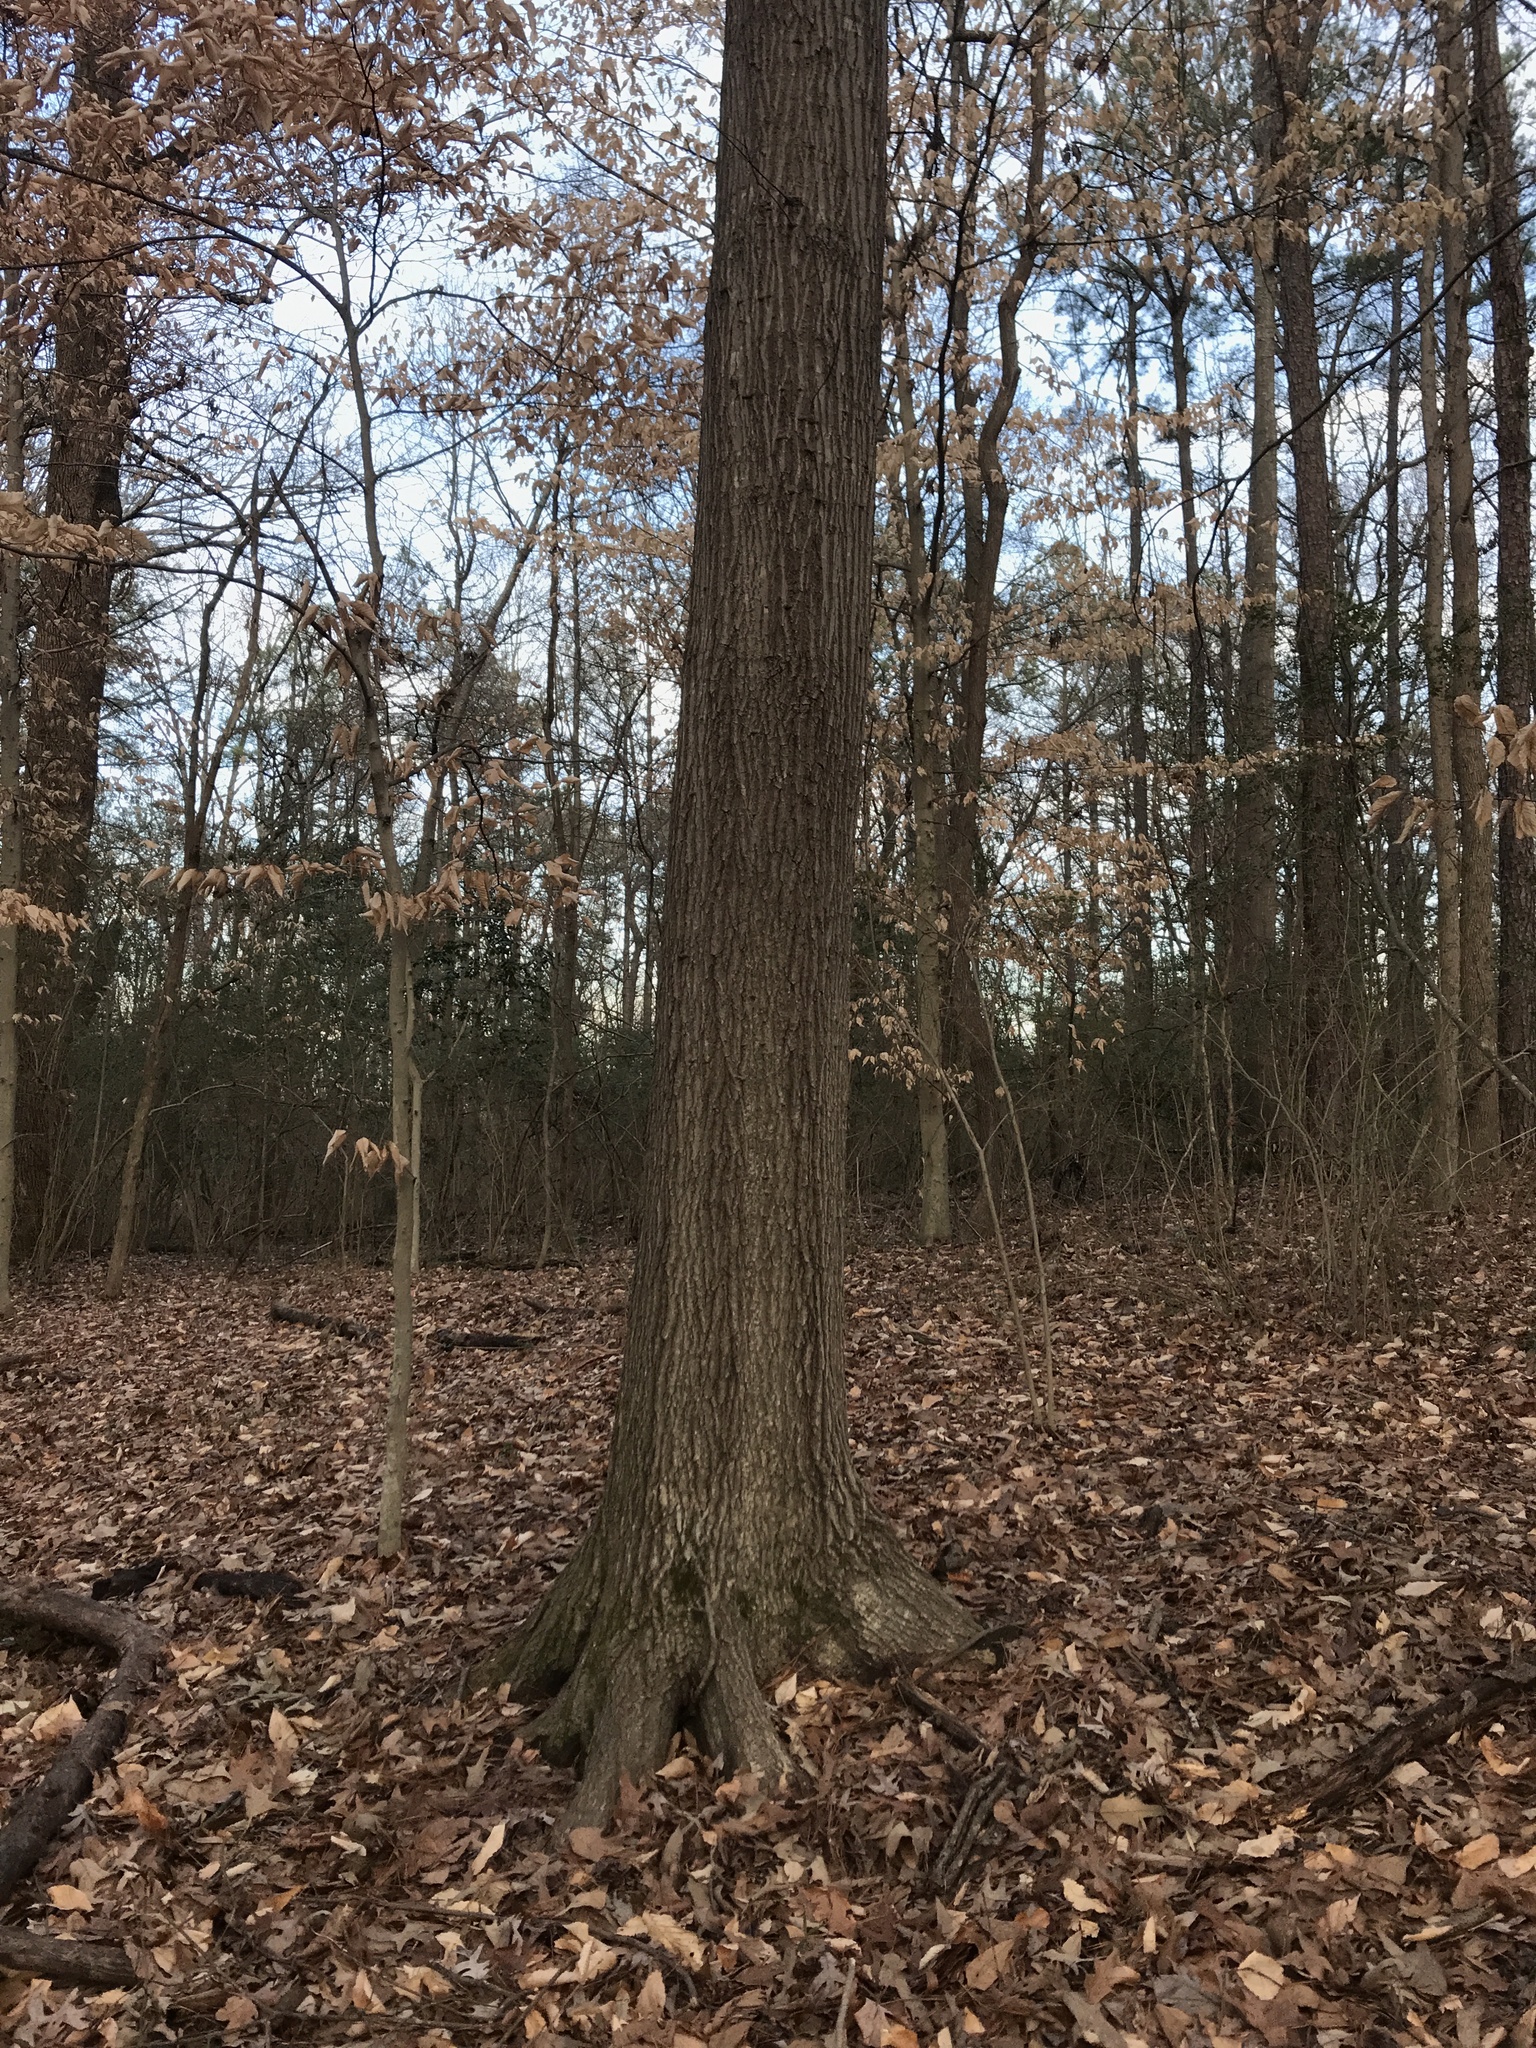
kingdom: Plantae
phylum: Tracheophyta
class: Magnoliopsida
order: Fagales
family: Fagaceae
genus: Quercus
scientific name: Quercus falcata
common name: Southern red oak
